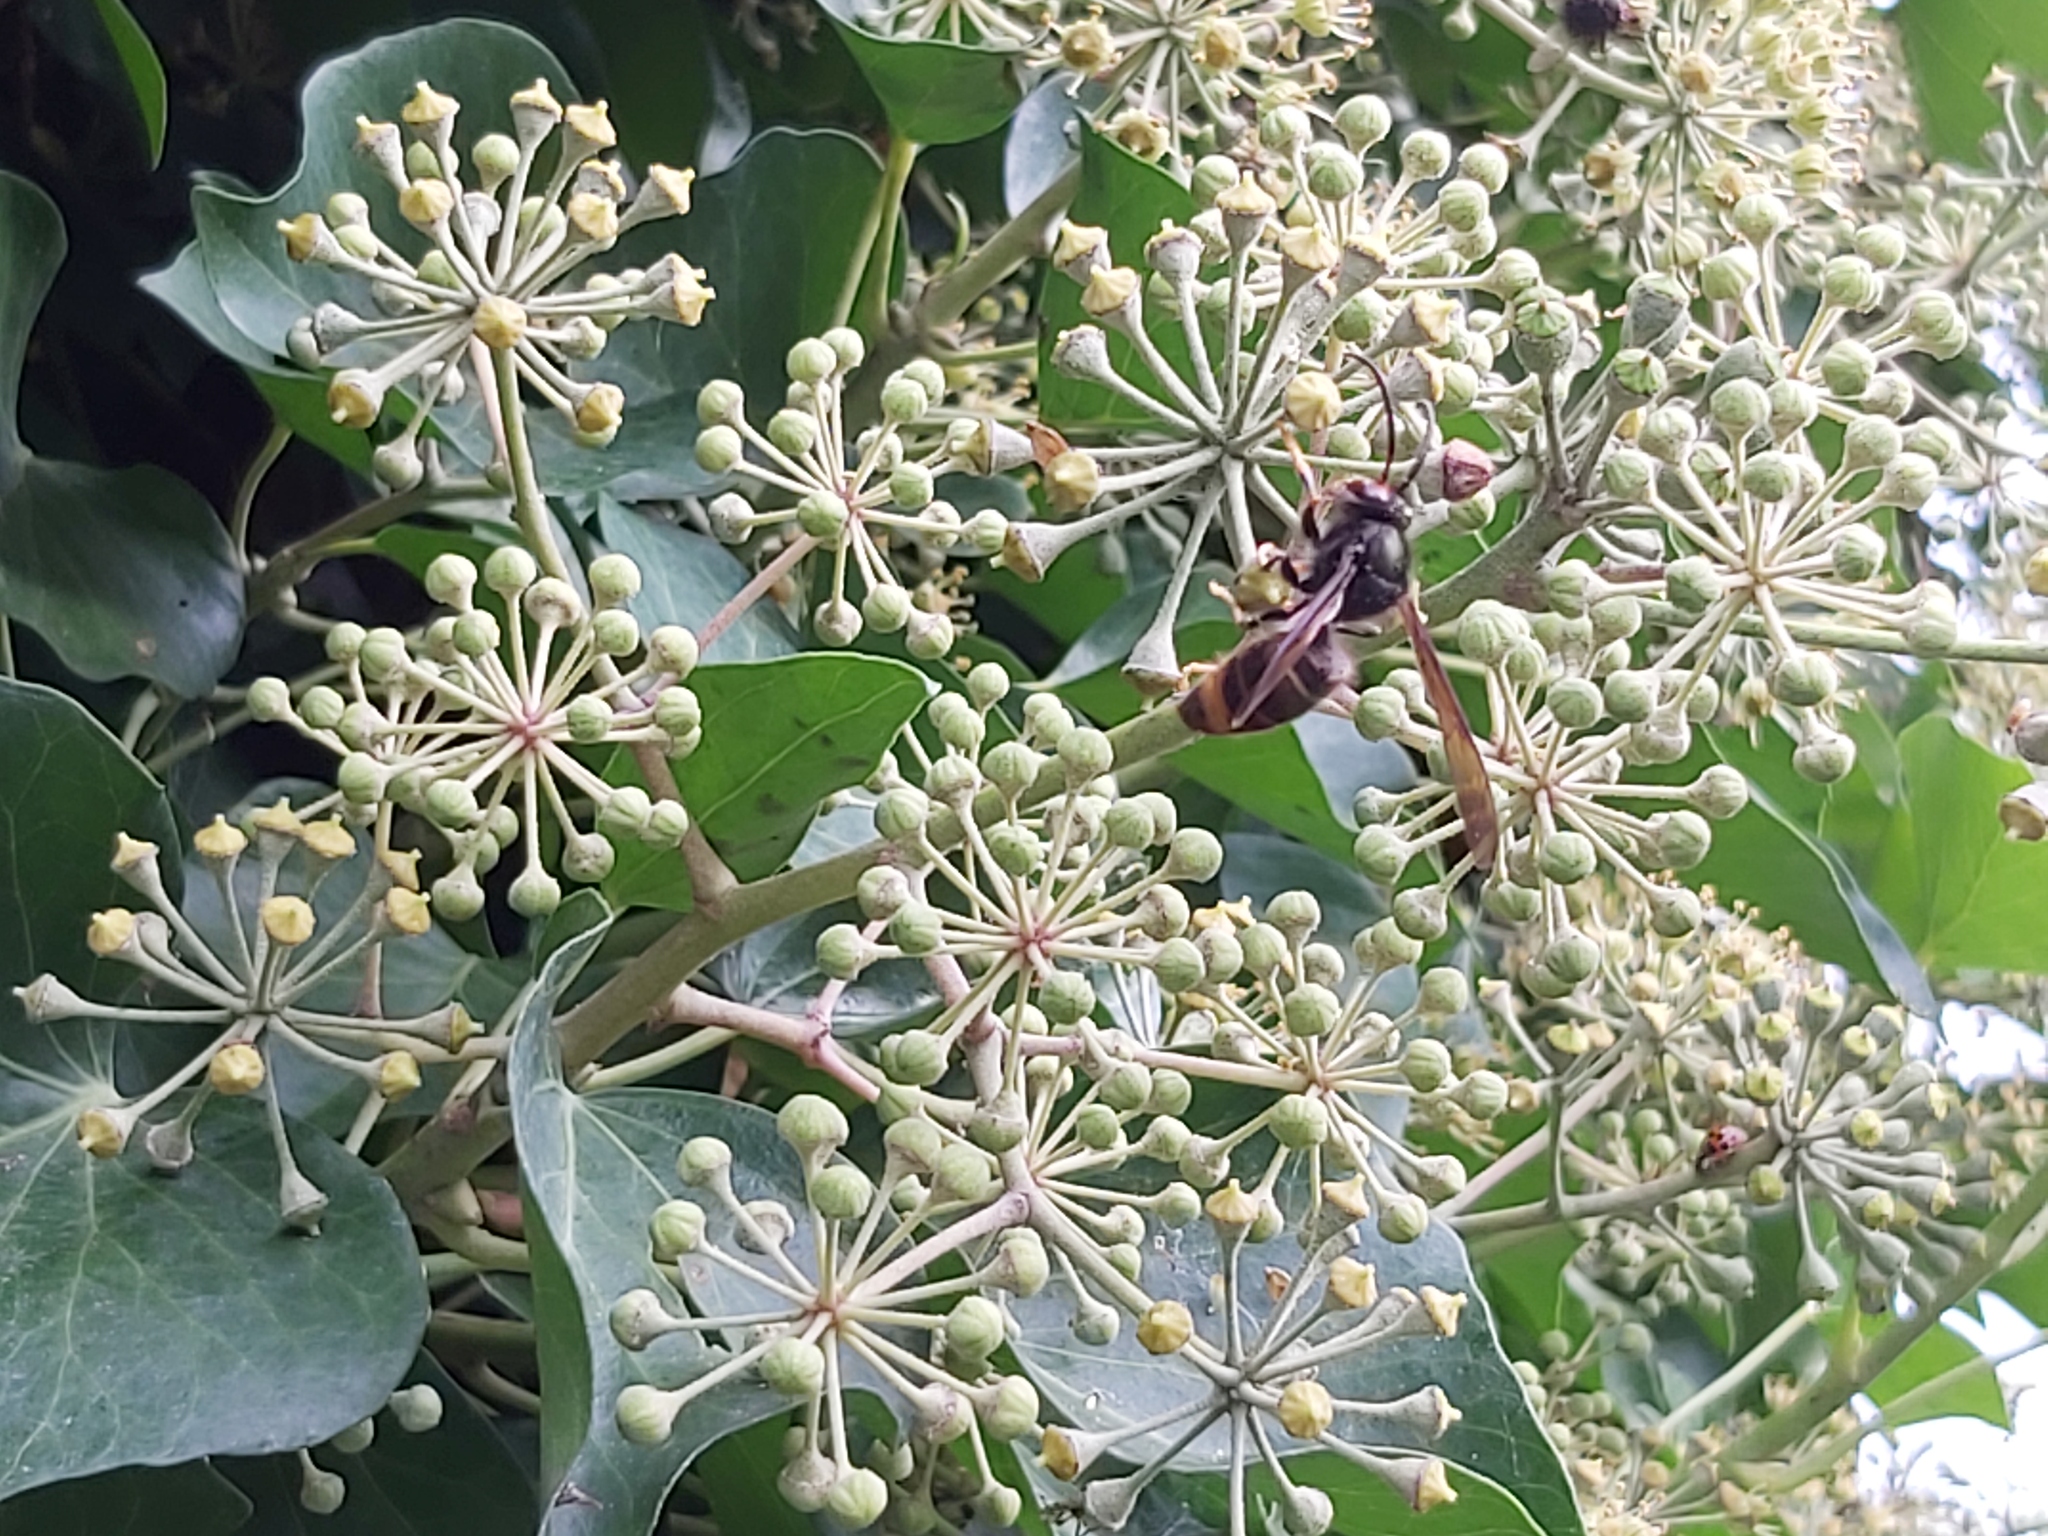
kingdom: Animalia
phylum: Arthropoda
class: Insecta
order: Hymenoptera
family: Vespidae
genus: Vespa
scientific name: Vespa velutina
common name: Asian hornet
